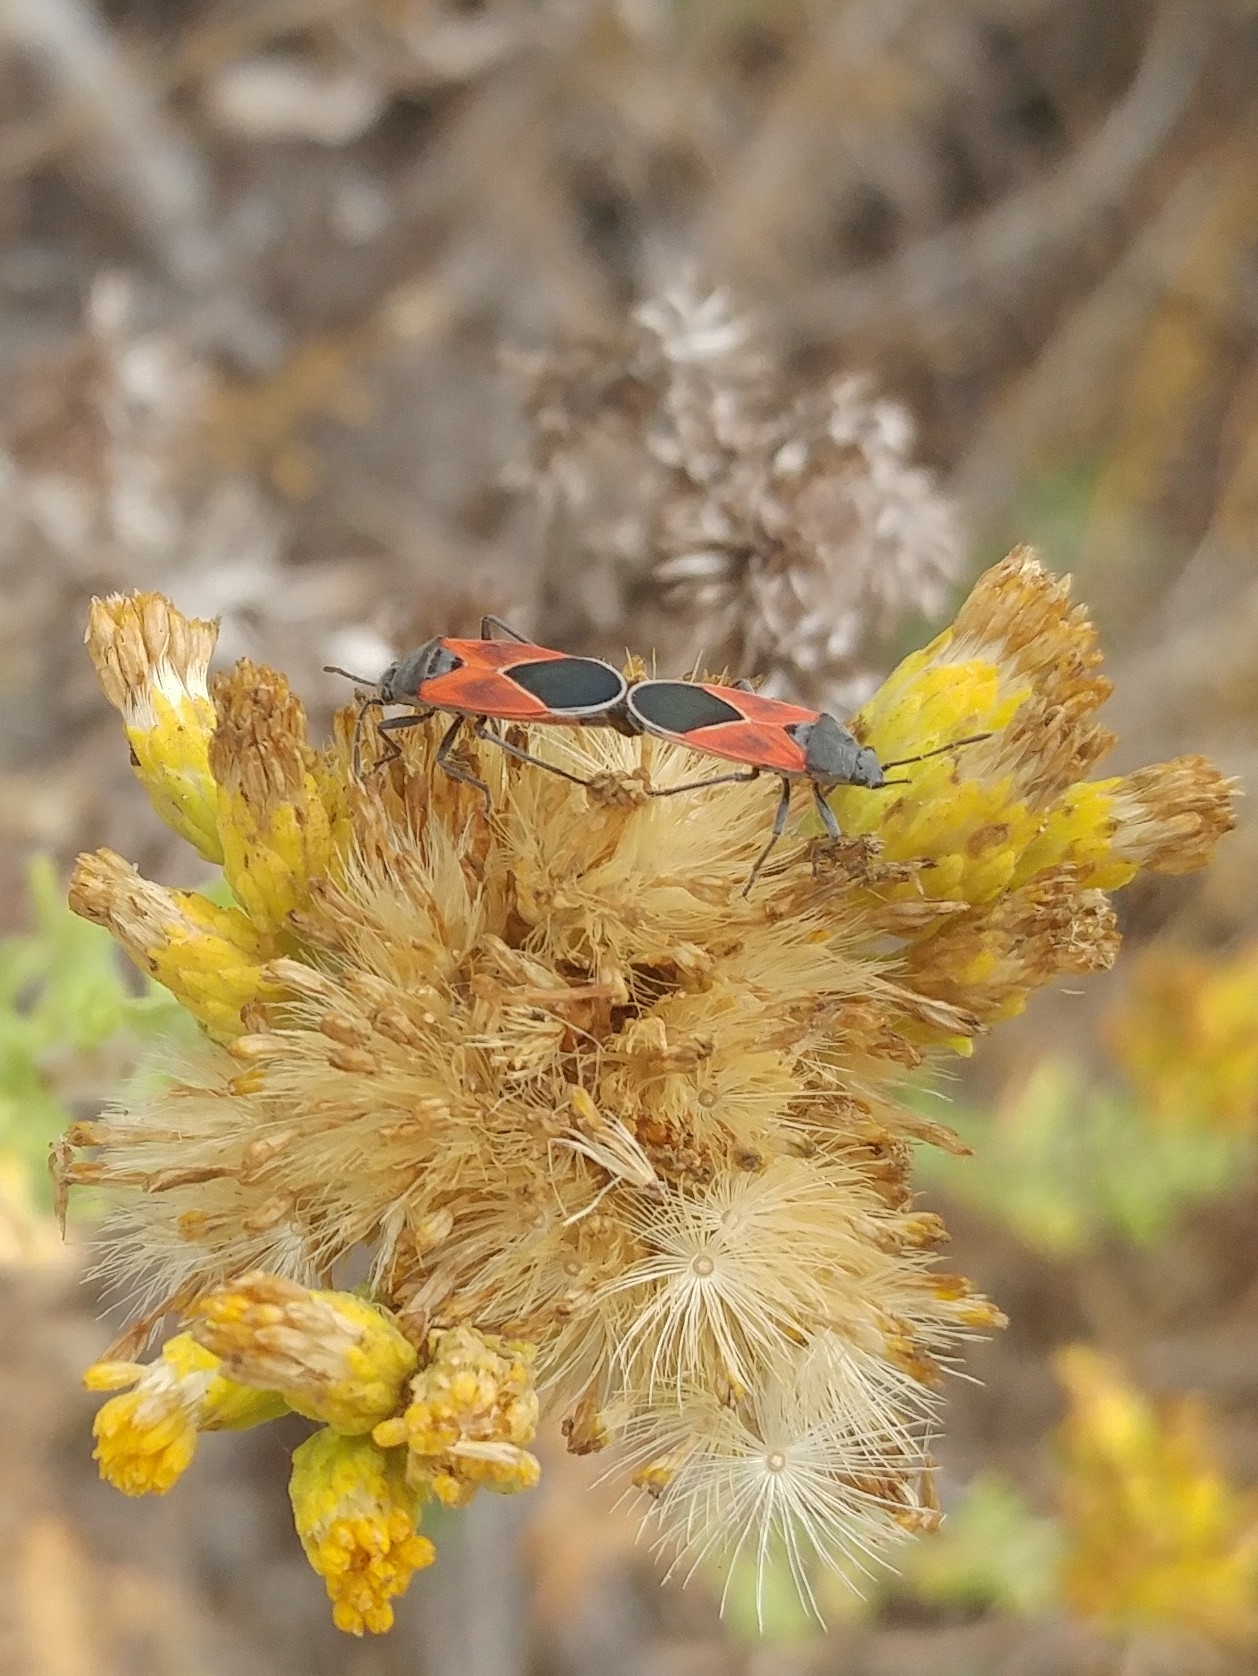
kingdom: Animalia
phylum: Arthropoda
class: Insecta
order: Hemiptera
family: Lygaeidae
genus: Melanopleurus
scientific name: Melanopleurus fuscosus
